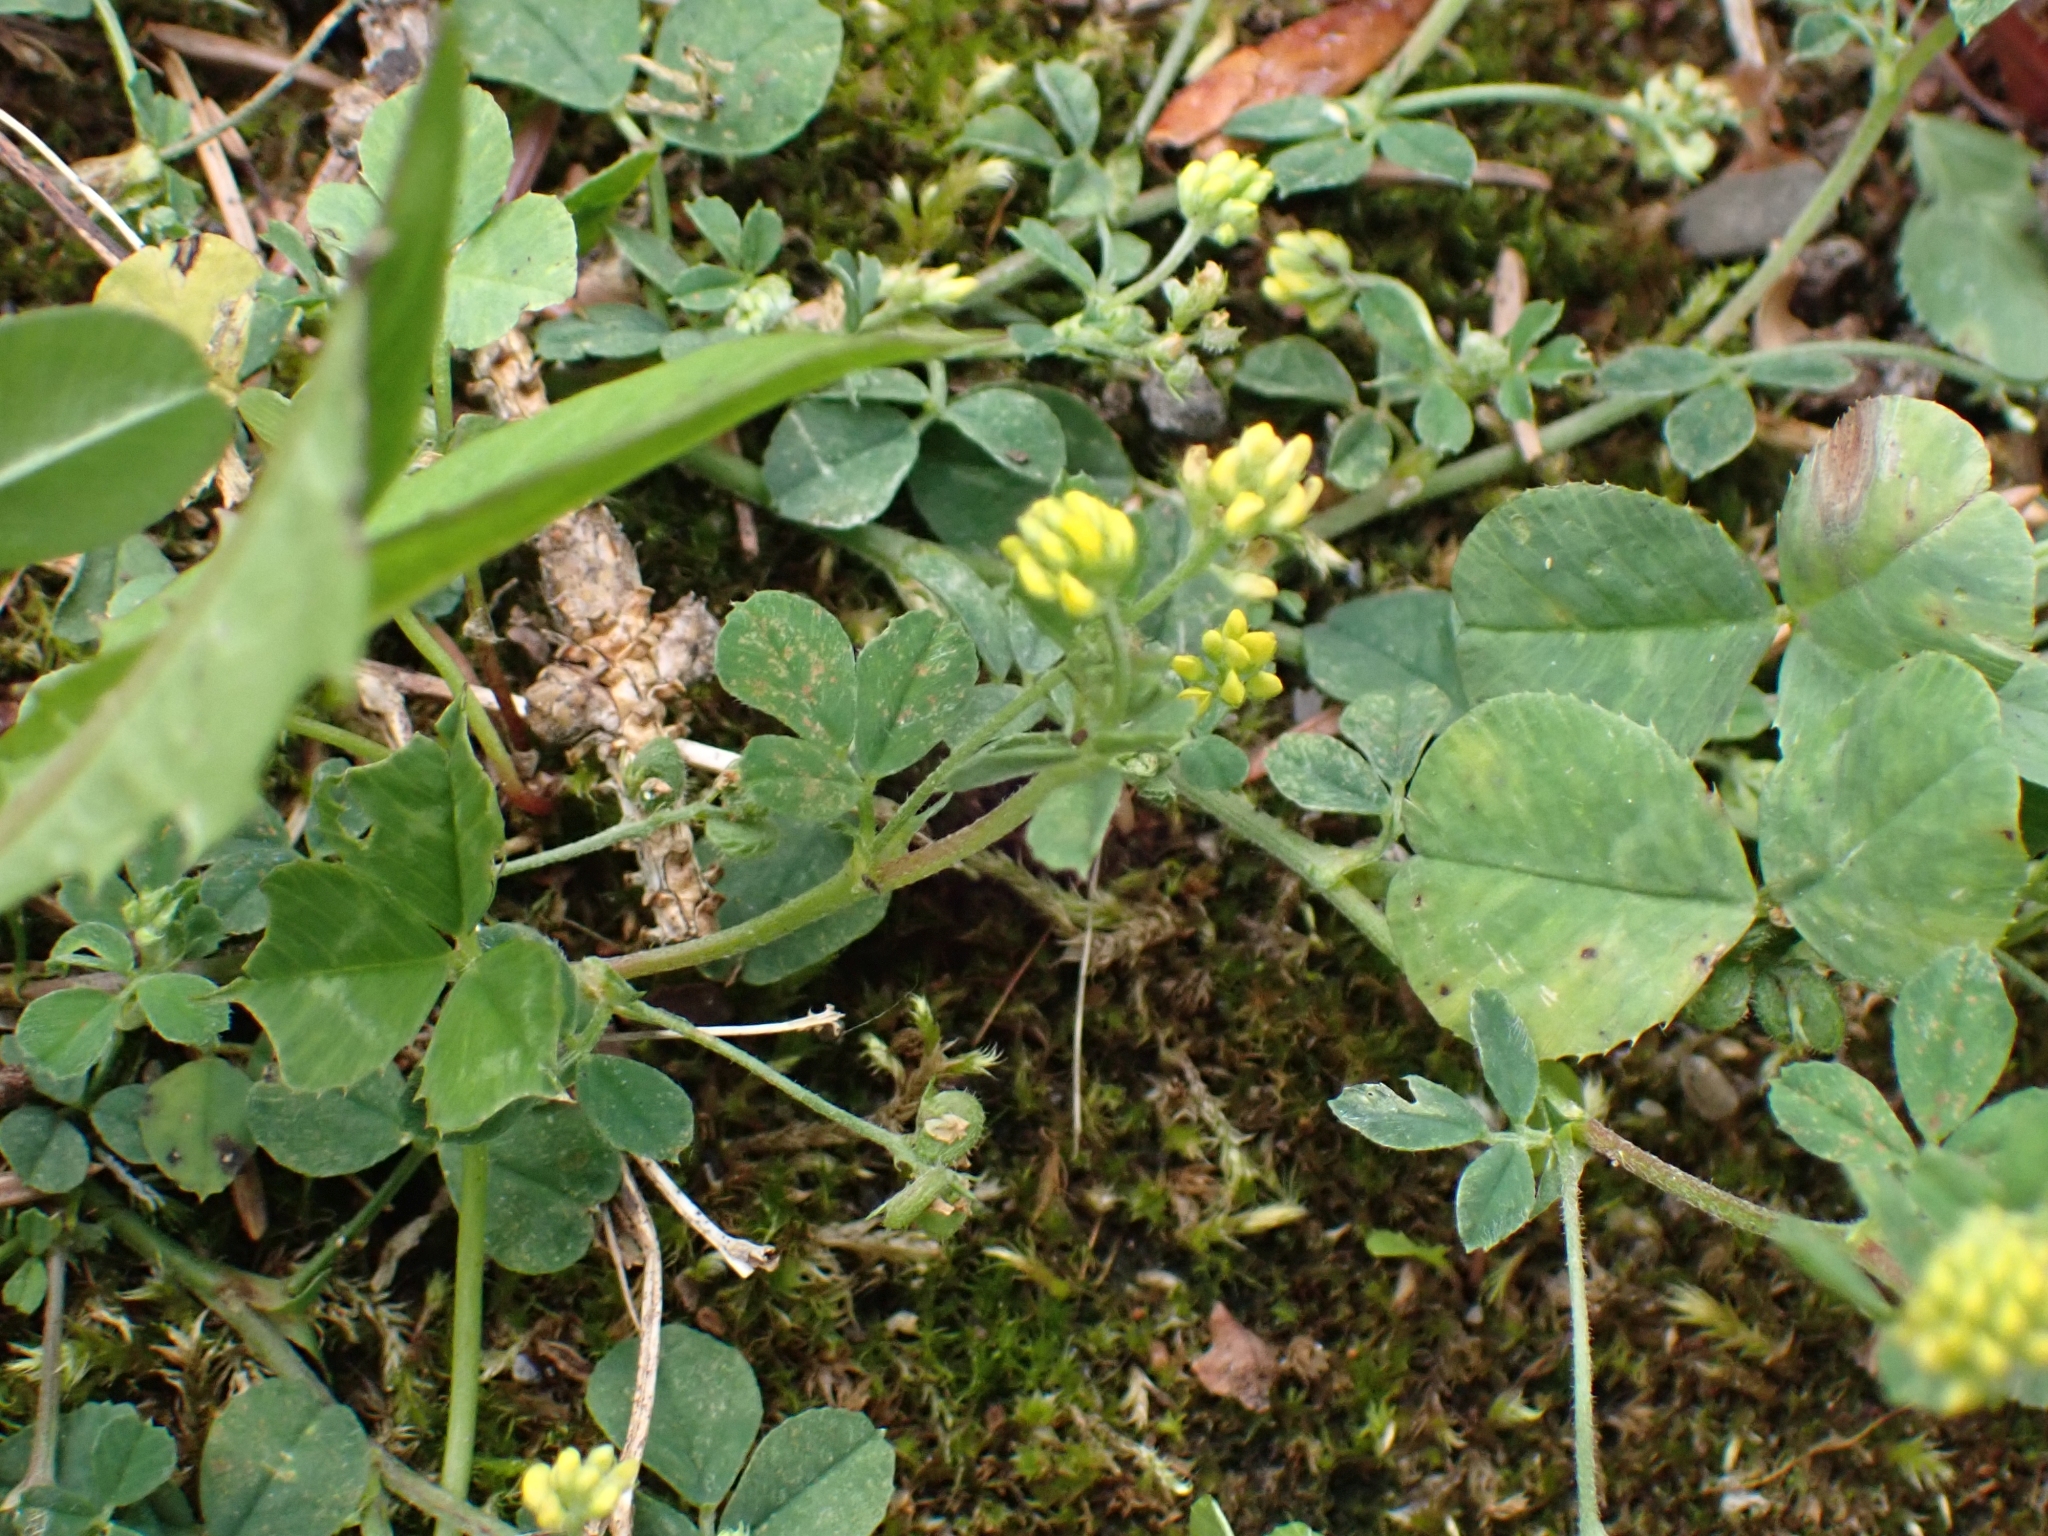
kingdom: Plantae
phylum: Tracheophyta
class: Magnoliopsida
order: Fabales
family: Fabaceae
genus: Medicago
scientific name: Medicago lupulina
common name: Black medick
